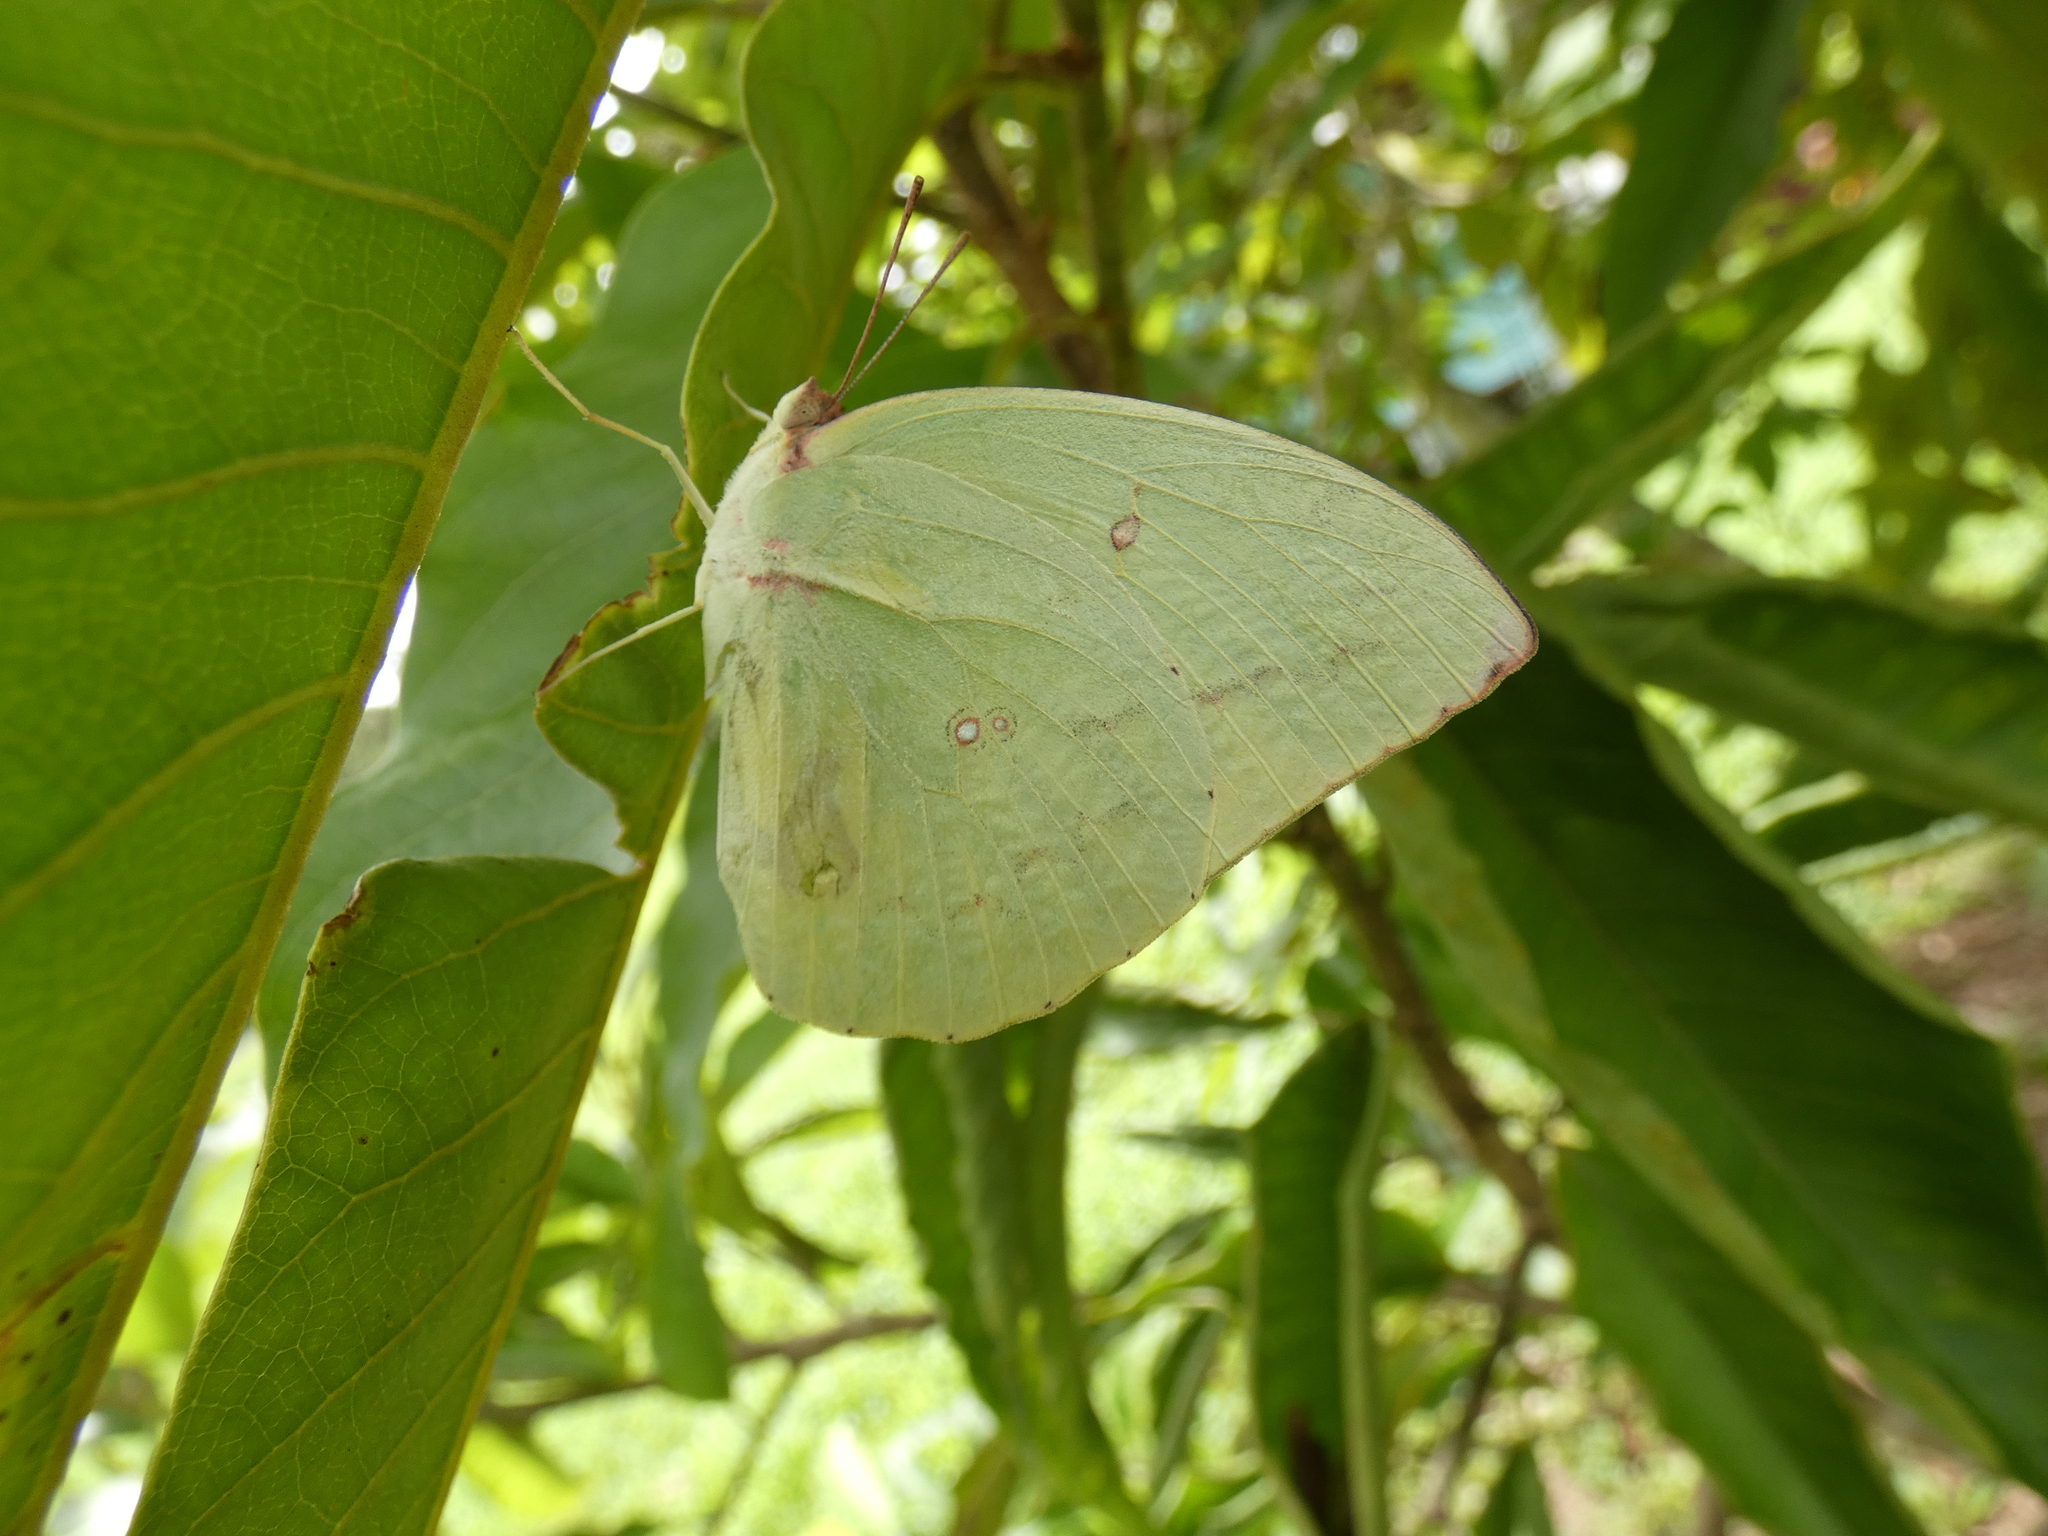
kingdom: Animalia
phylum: Arthropoda
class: Insecta
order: Lepidoptera
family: Pieridae
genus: Catopsilia
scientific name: Catopsilia pomona
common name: Common emigrant
